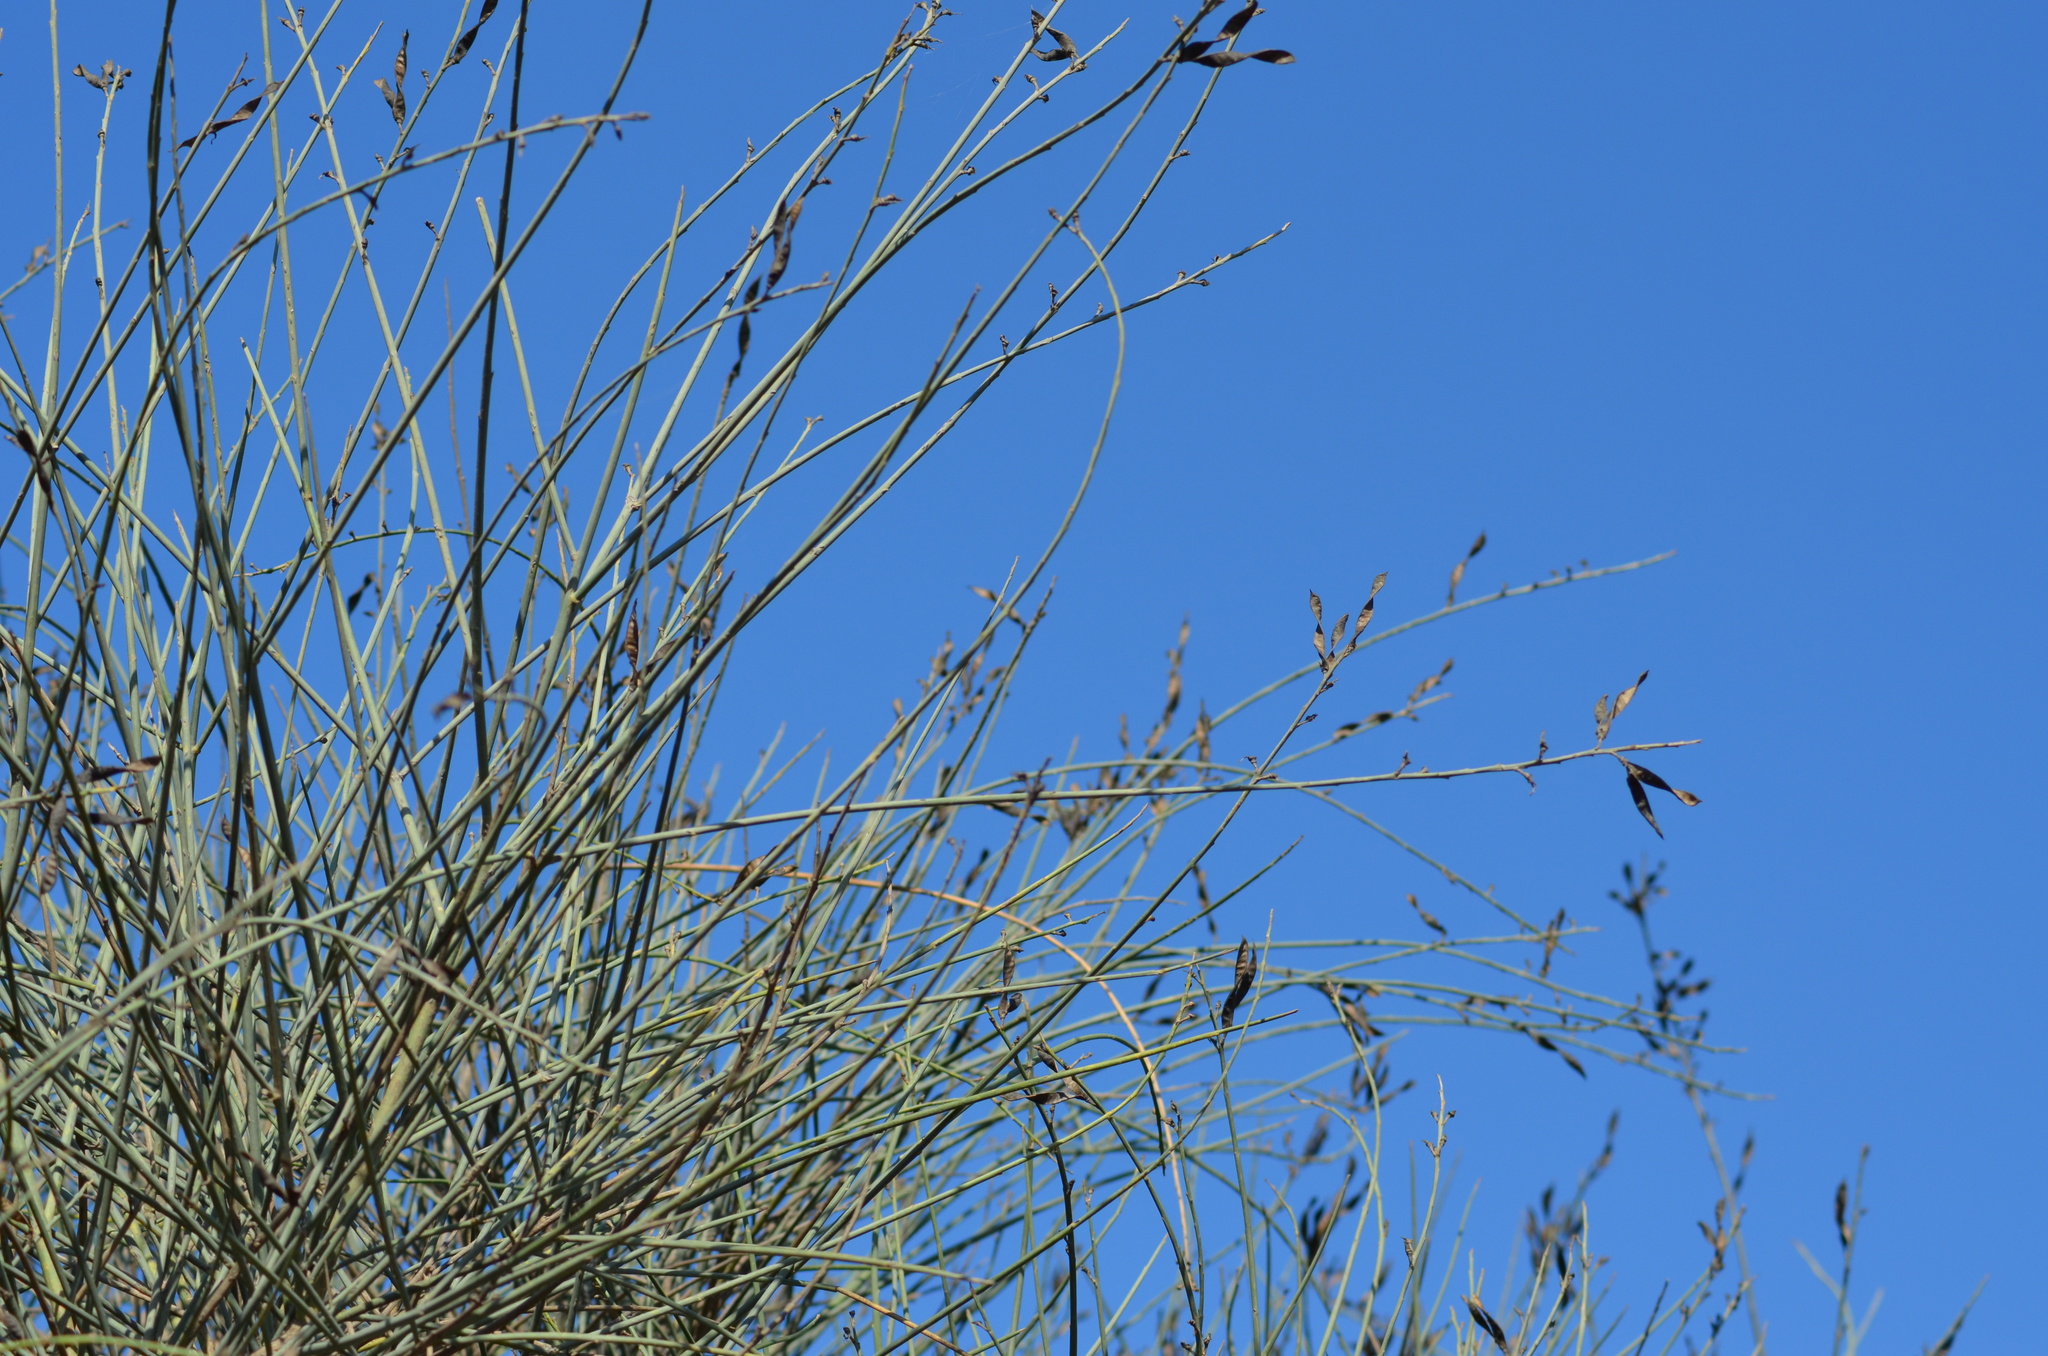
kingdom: Plantae
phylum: Tracheophyta
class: Magnoliopsida
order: Fabales
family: Fabaceae
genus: Spartium
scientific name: Spartium junceum
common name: Spanish broom
